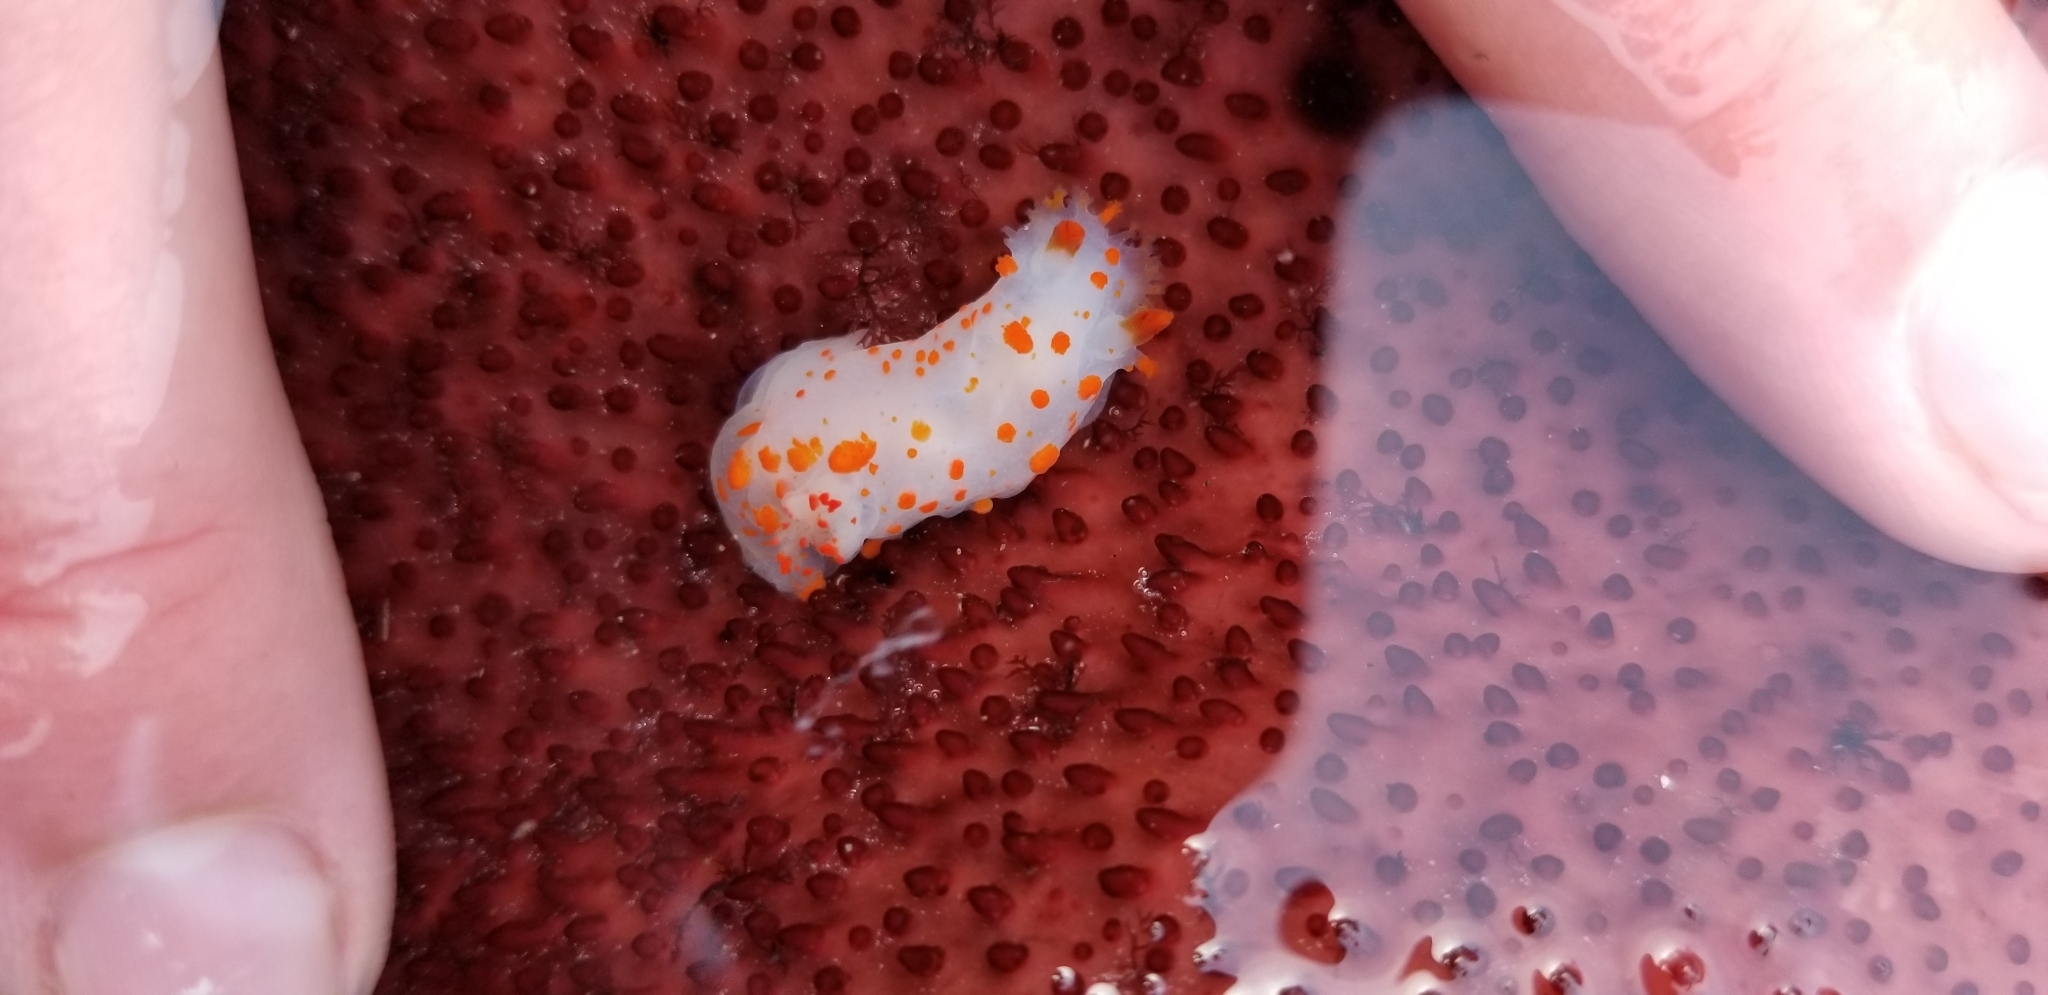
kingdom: Animalia
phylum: Mollusca
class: Gastropoda
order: Nudibranchia
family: Polyceridae
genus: Triopha
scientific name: Triopha catalinae
